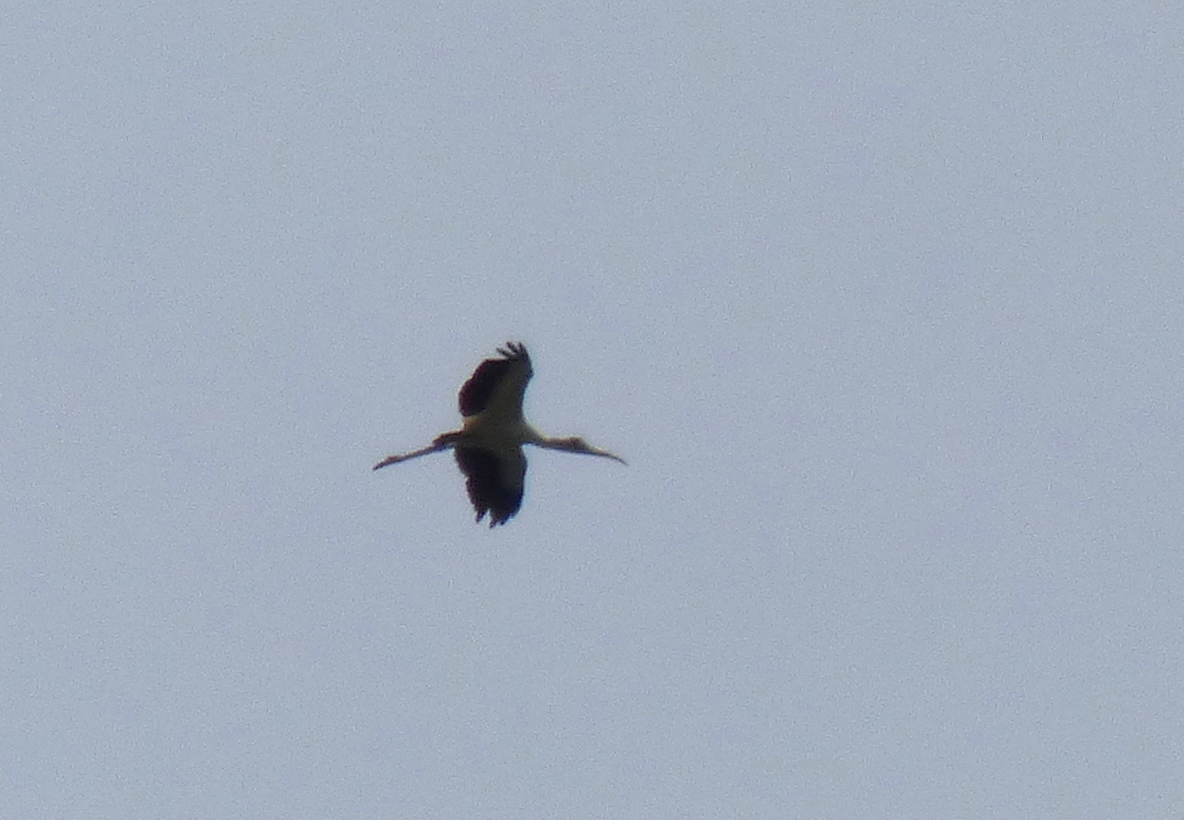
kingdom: Animalia
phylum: Chordata
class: Aves
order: Ciconiiformes
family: Ciconiidae
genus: Mycteria
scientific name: Mycteria americana
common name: Wood stork
